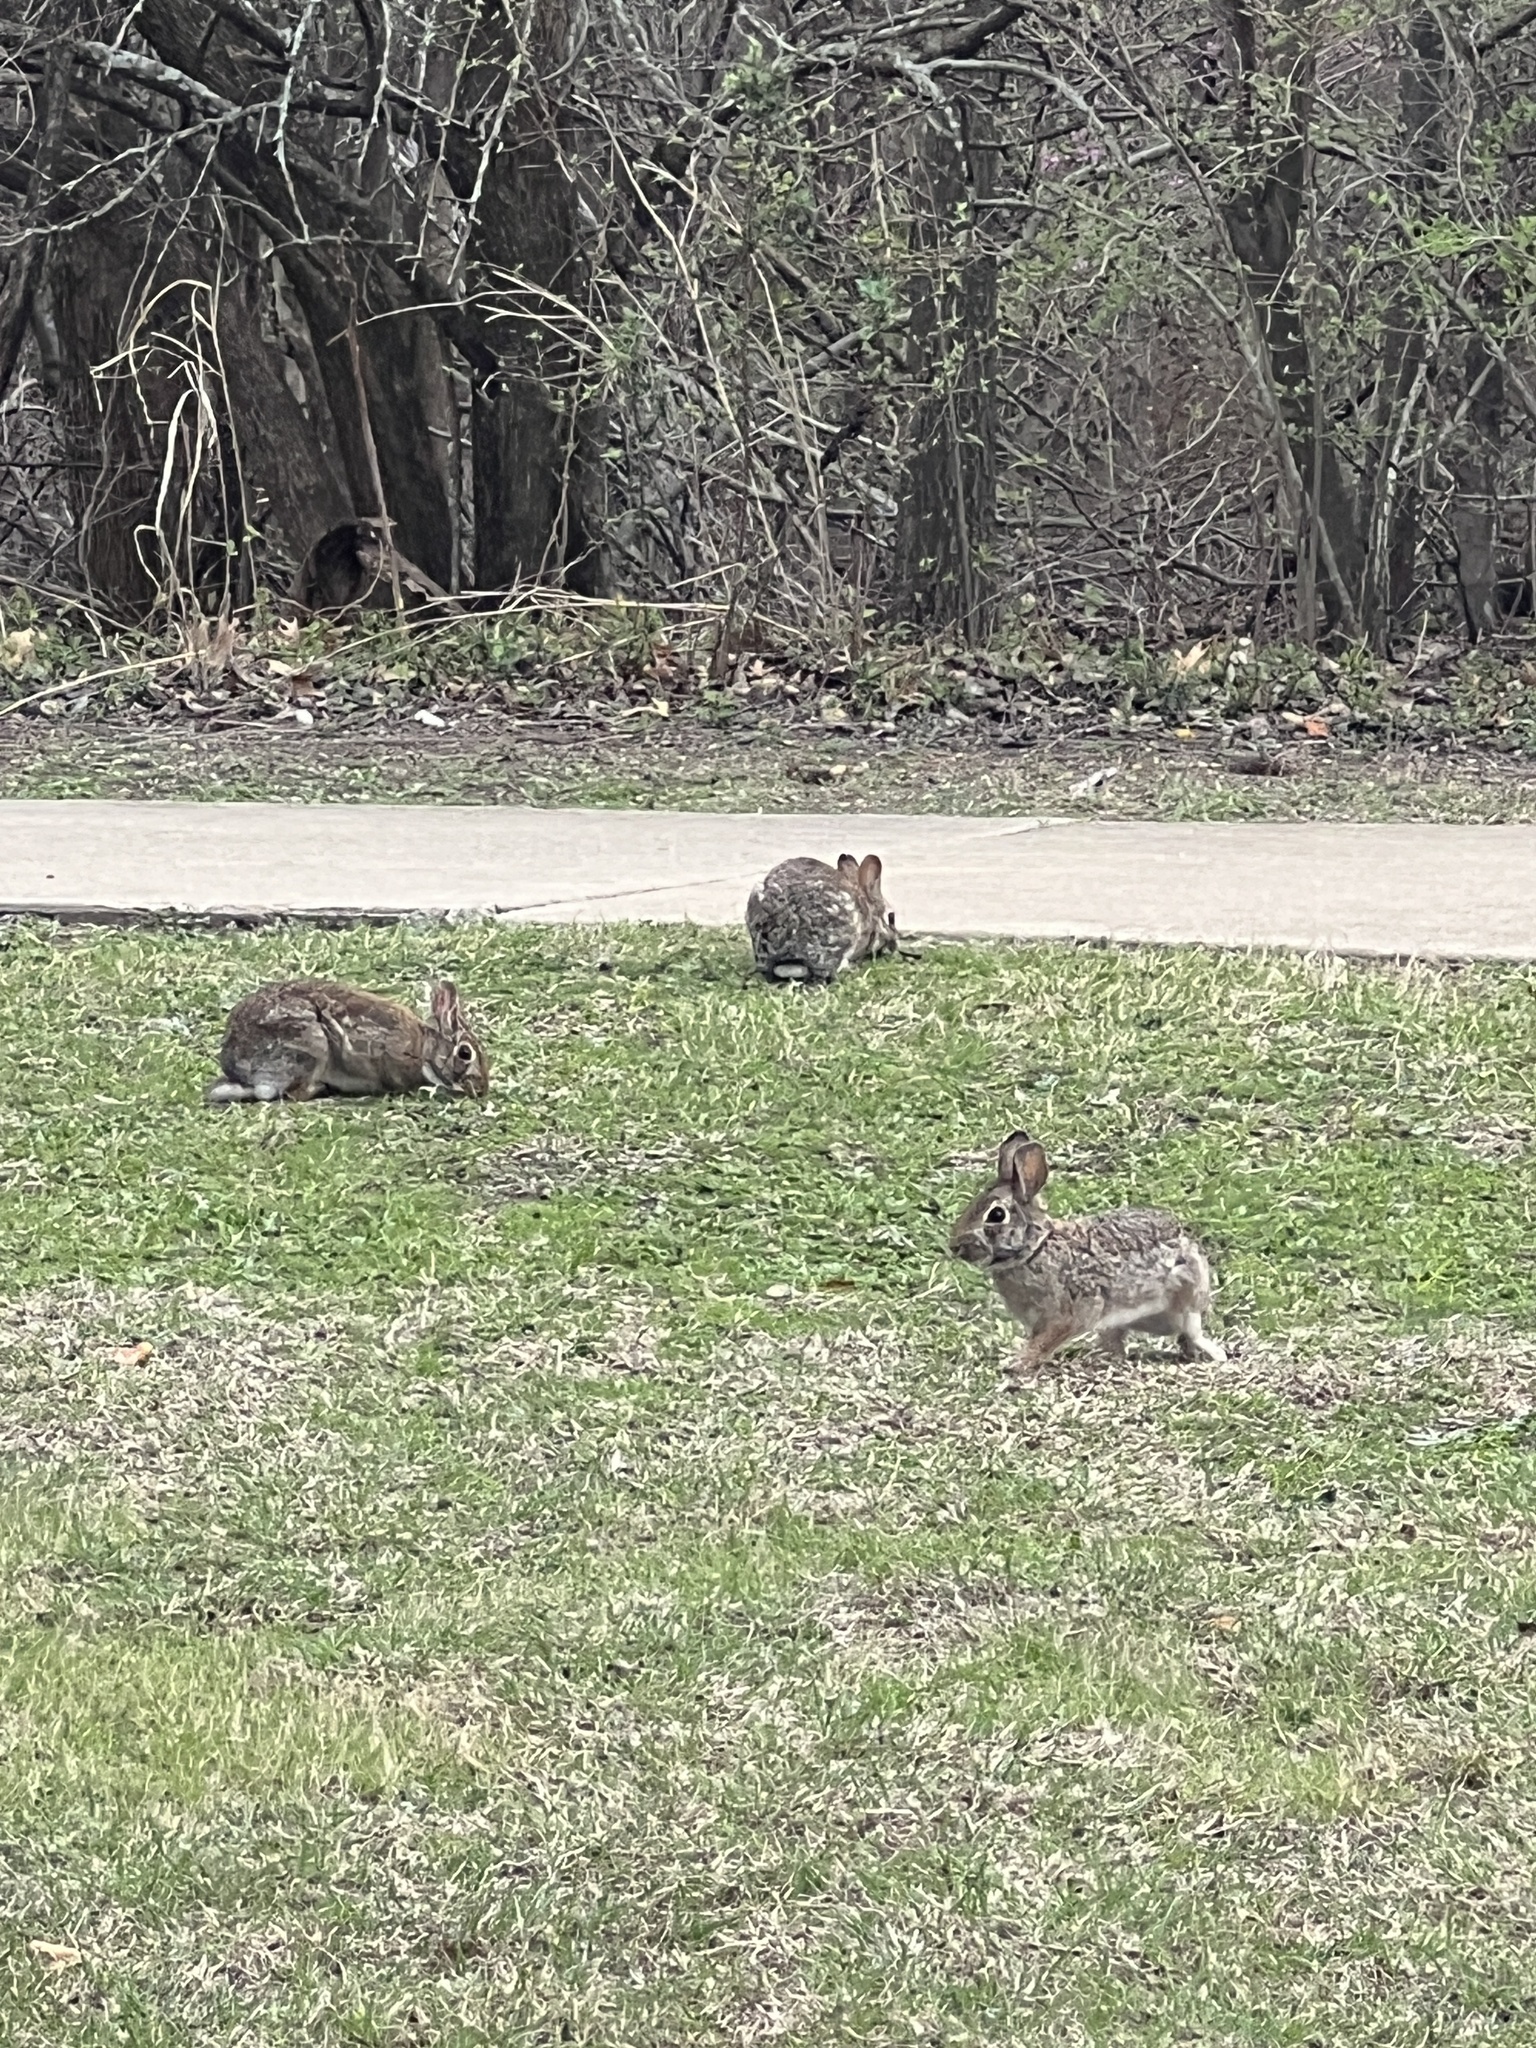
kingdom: Animalia
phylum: Chordata
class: Mammalia
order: Lagomorpha
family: Leporidae
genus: Sylvilagus
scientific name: Sylvilagus floridanus
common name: Eastern cottontail
